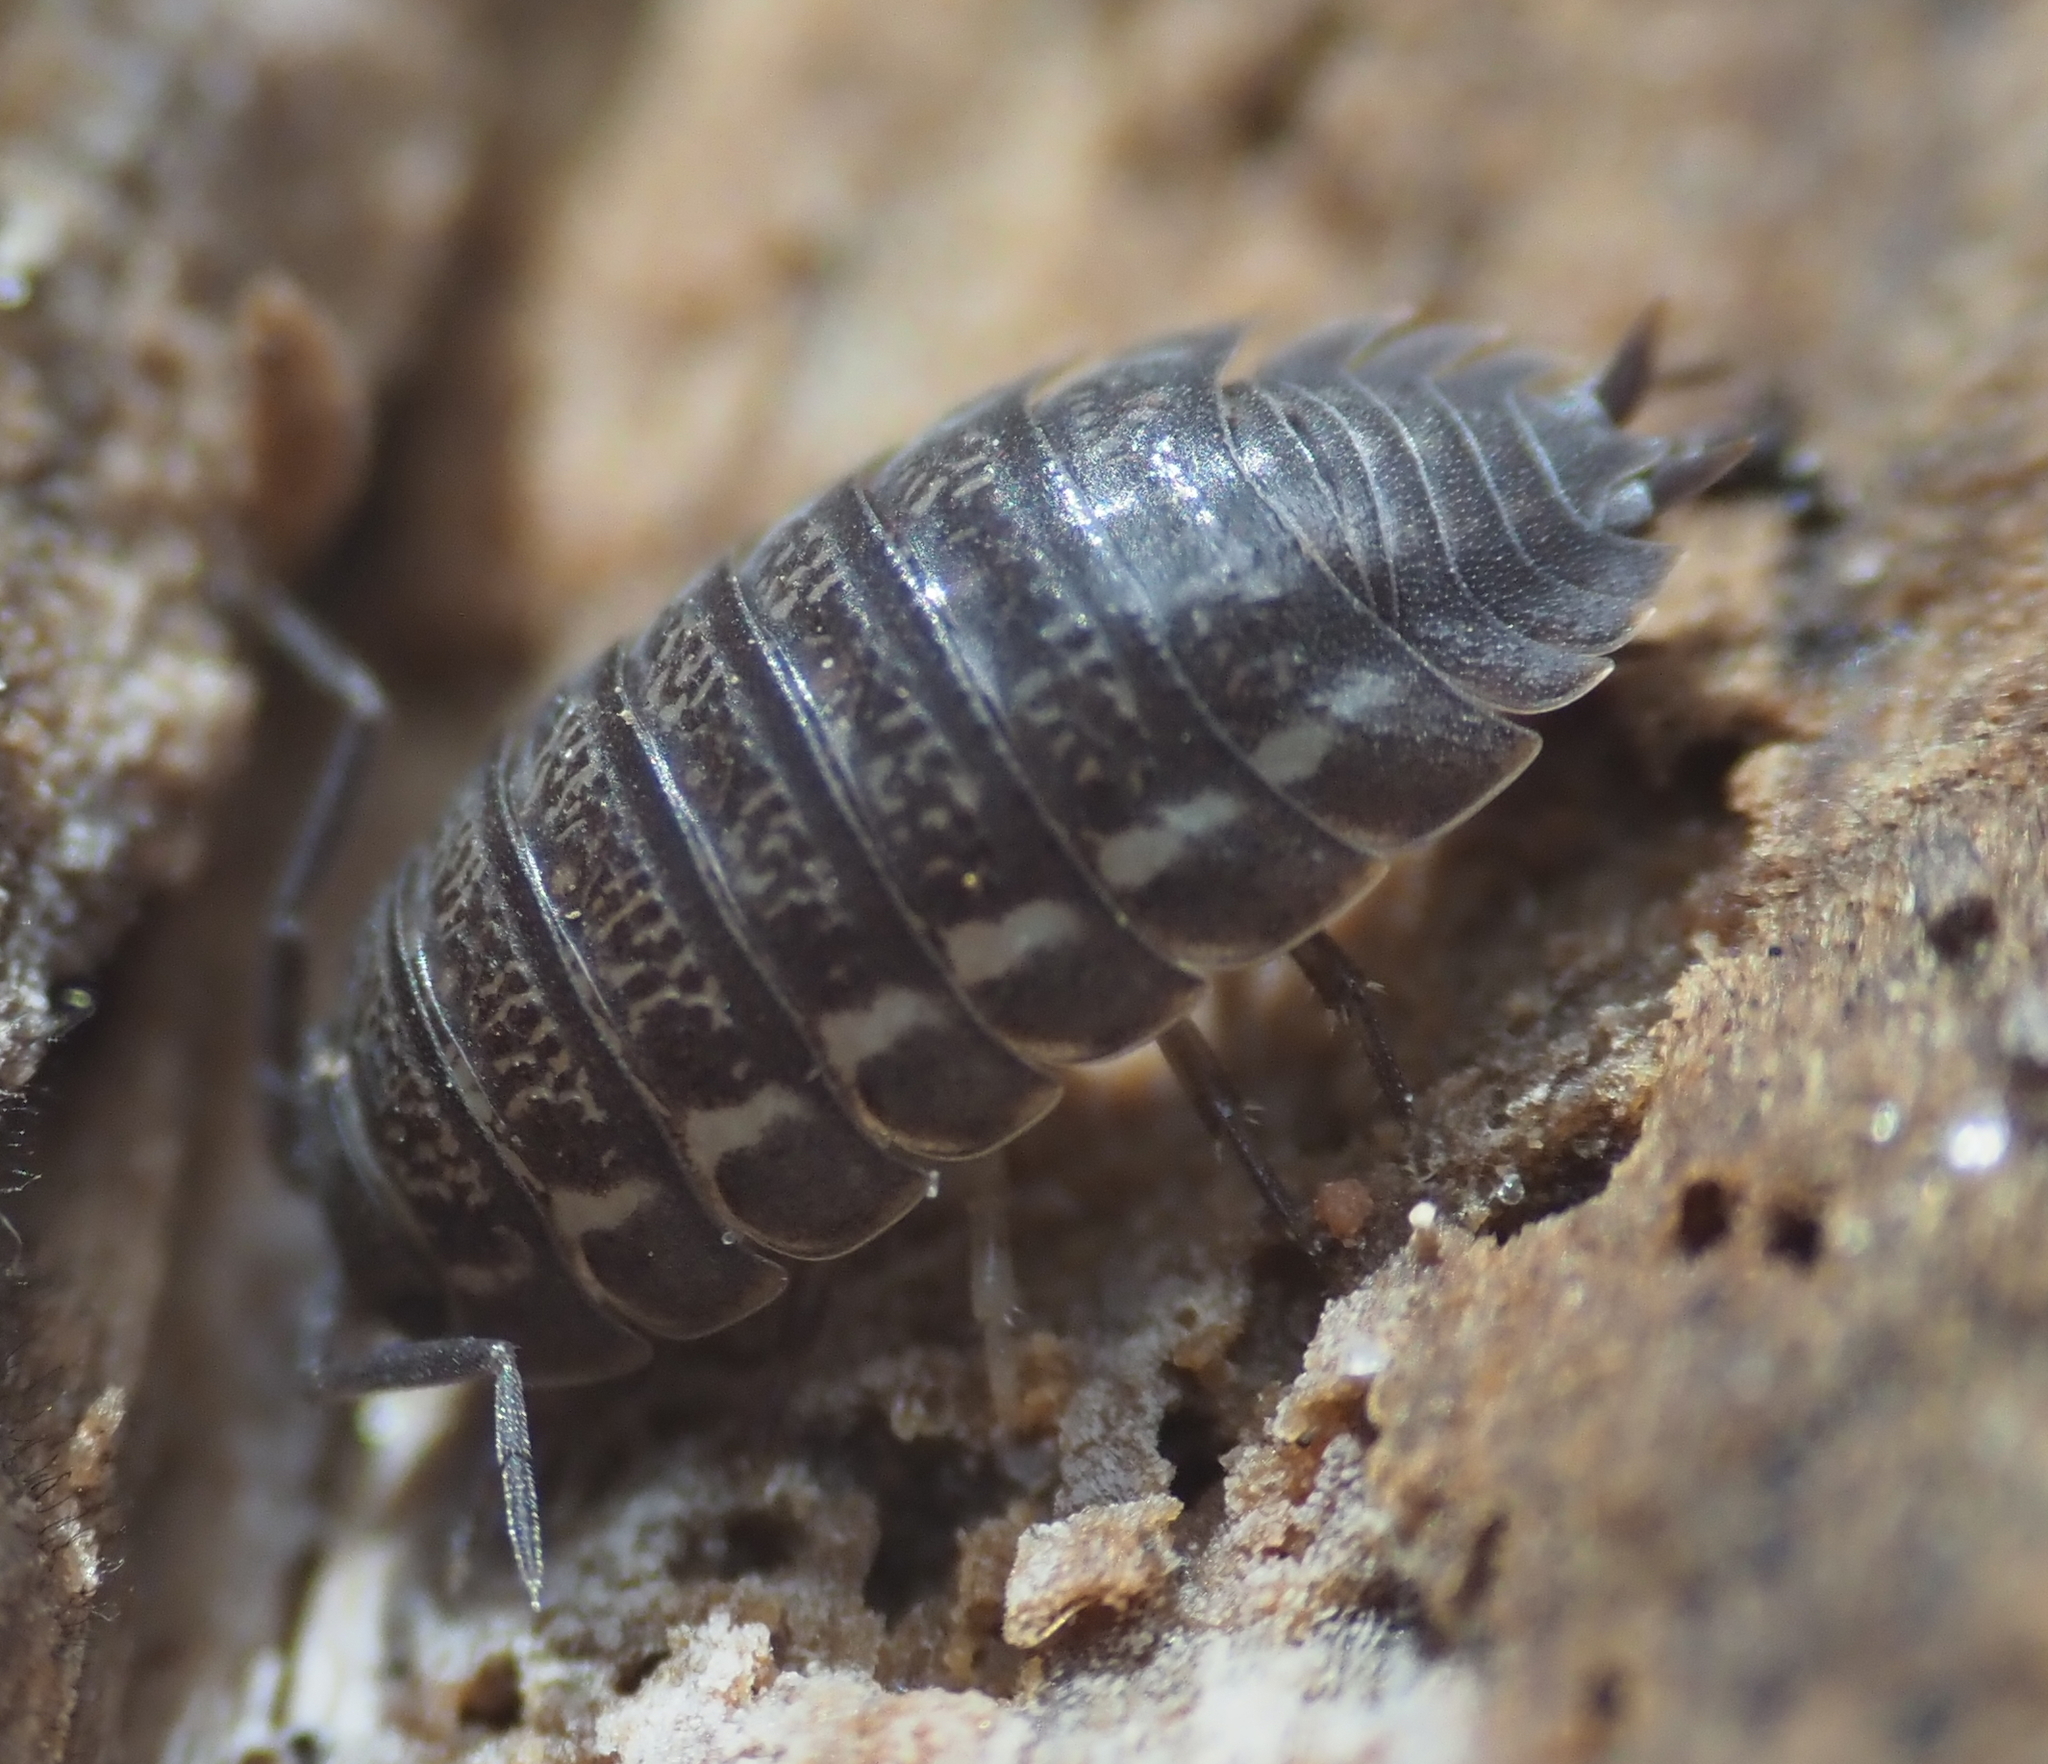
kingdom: Animalia
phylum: Arthropoda
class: Malacostraca
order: Isopoda
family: Trachelipodidae
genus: Trachelipus
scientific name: Trachelipus rathkii
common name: Isopod
